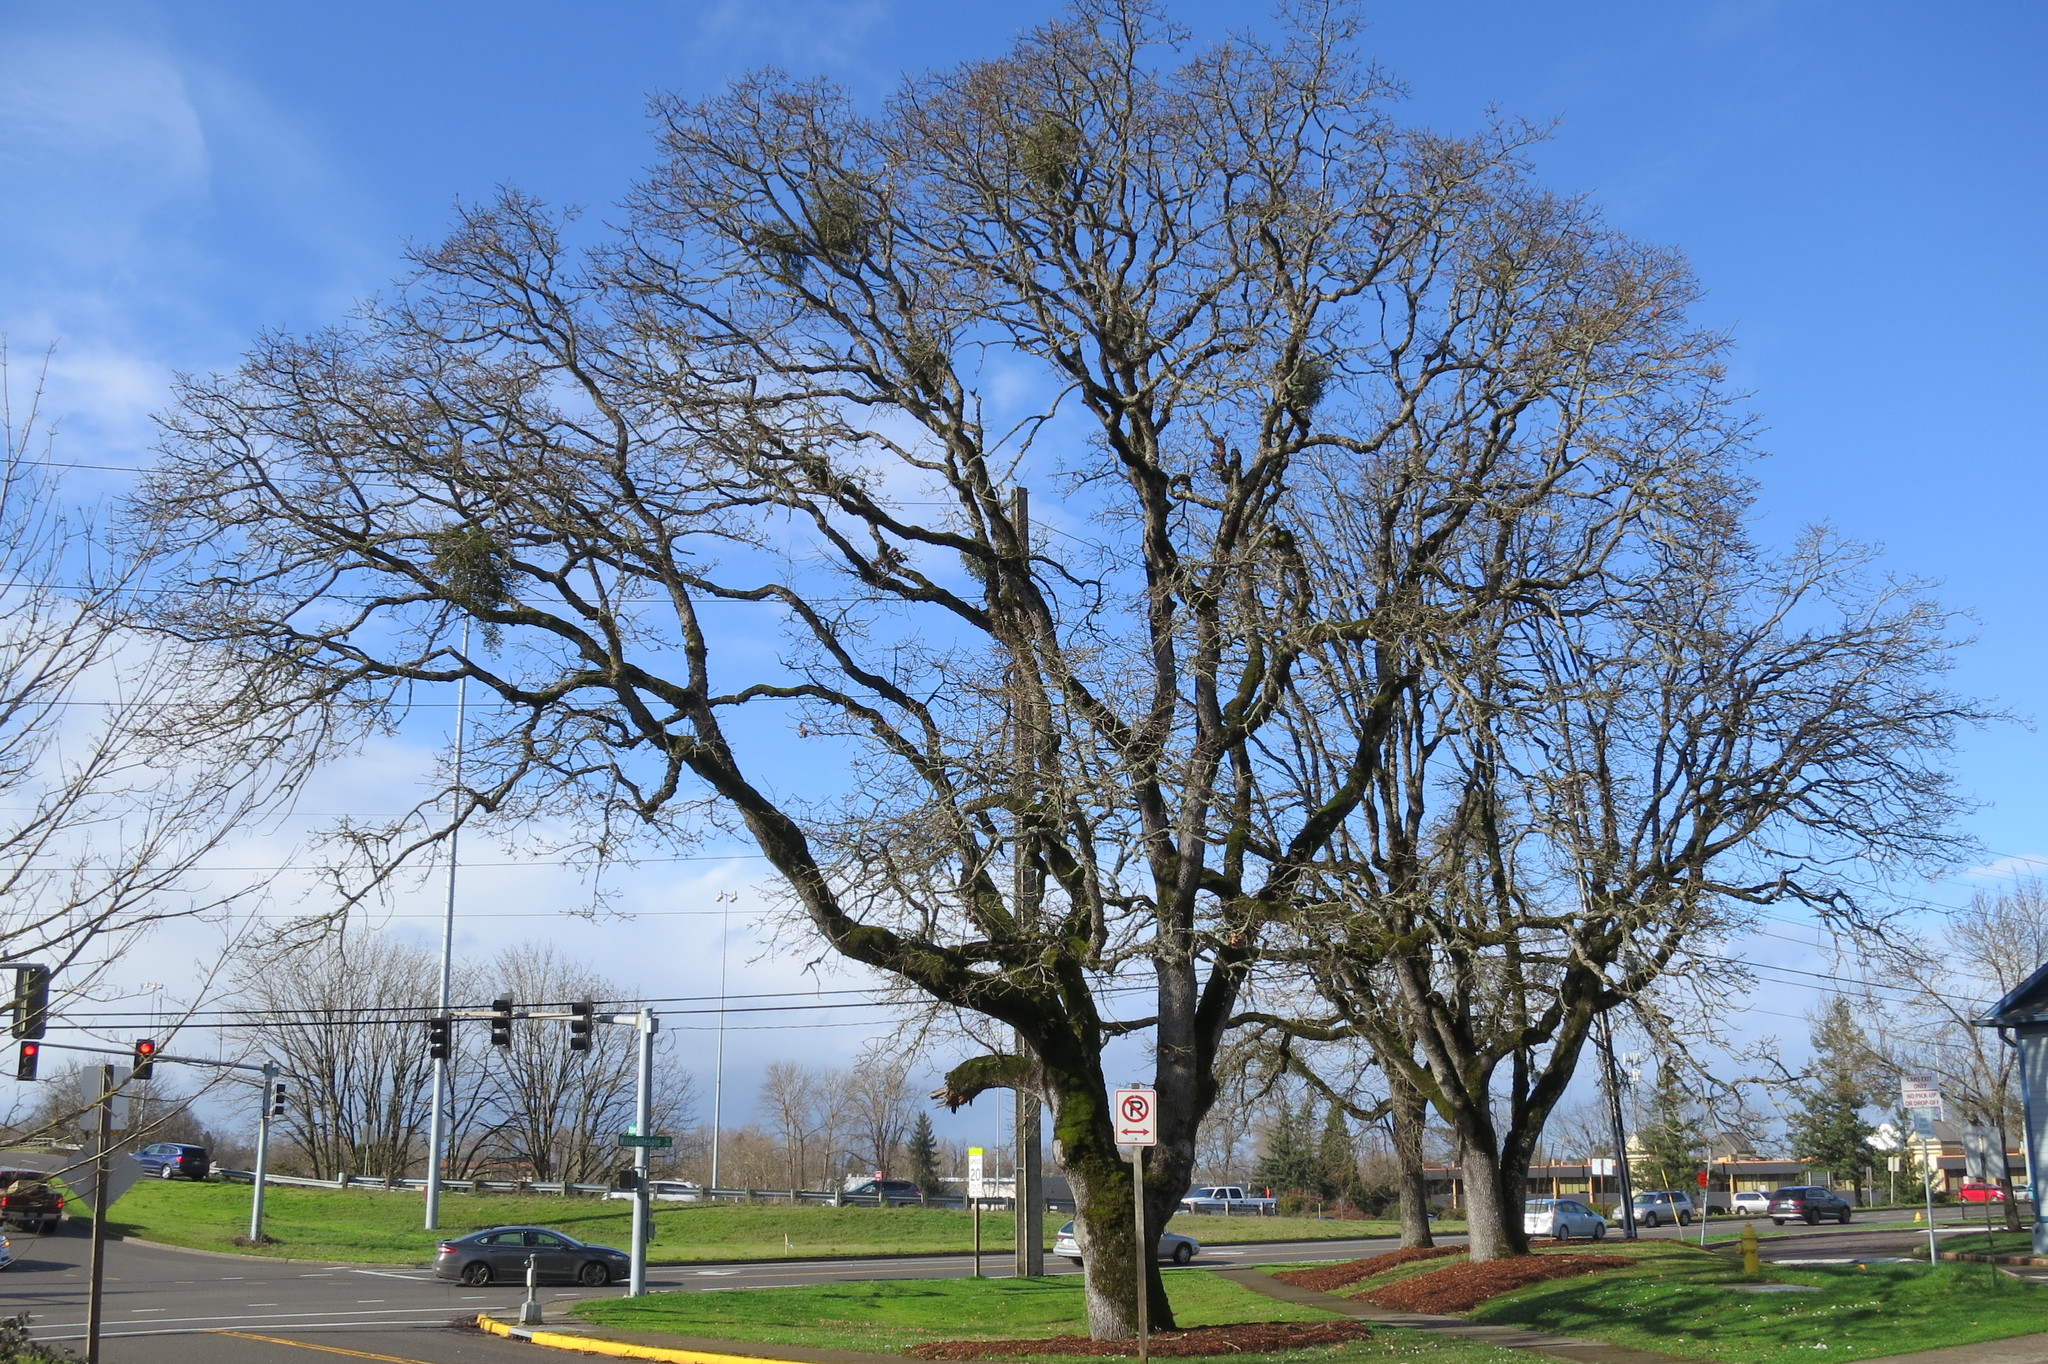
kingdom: Plantae
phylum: Tracheophyta
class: Magnoliopsida
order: Santalales
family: Viscaceae
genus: Phoradendron
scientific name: Phoradendron leucarpum
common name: Pacific mistletoe
